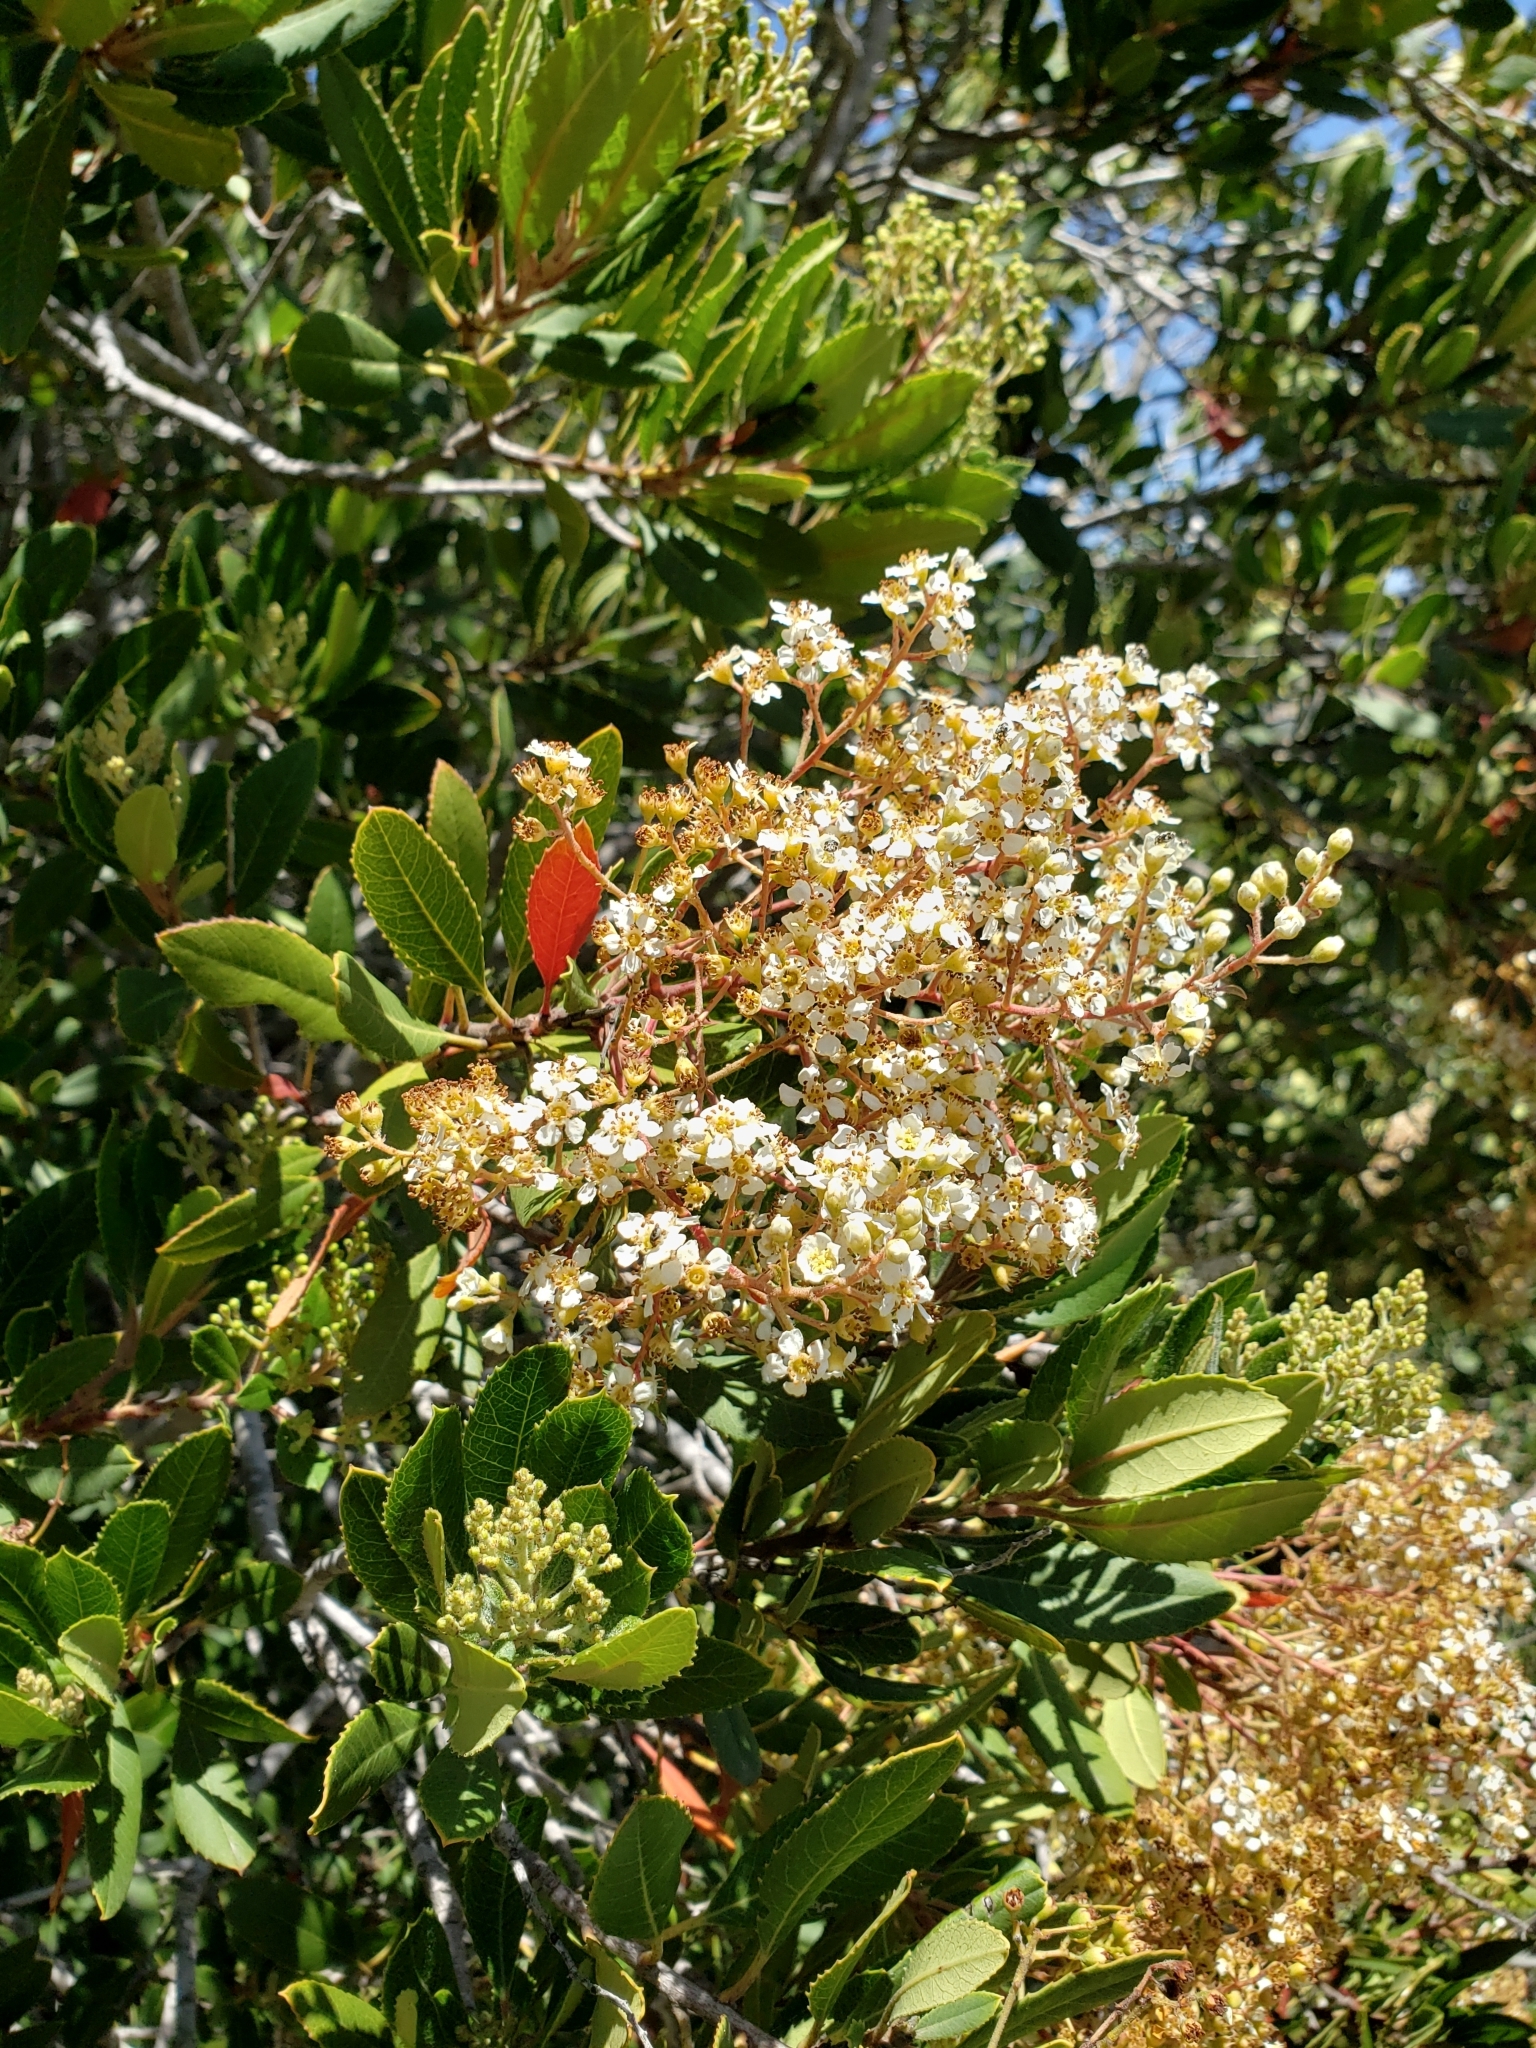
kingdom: Plantae
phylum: Tracheophyta
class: Magnoliopsida
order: Rosales
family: Rosaceae
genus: Heteromeles
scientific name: Heteromeles arbutifolia
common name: California-holly
